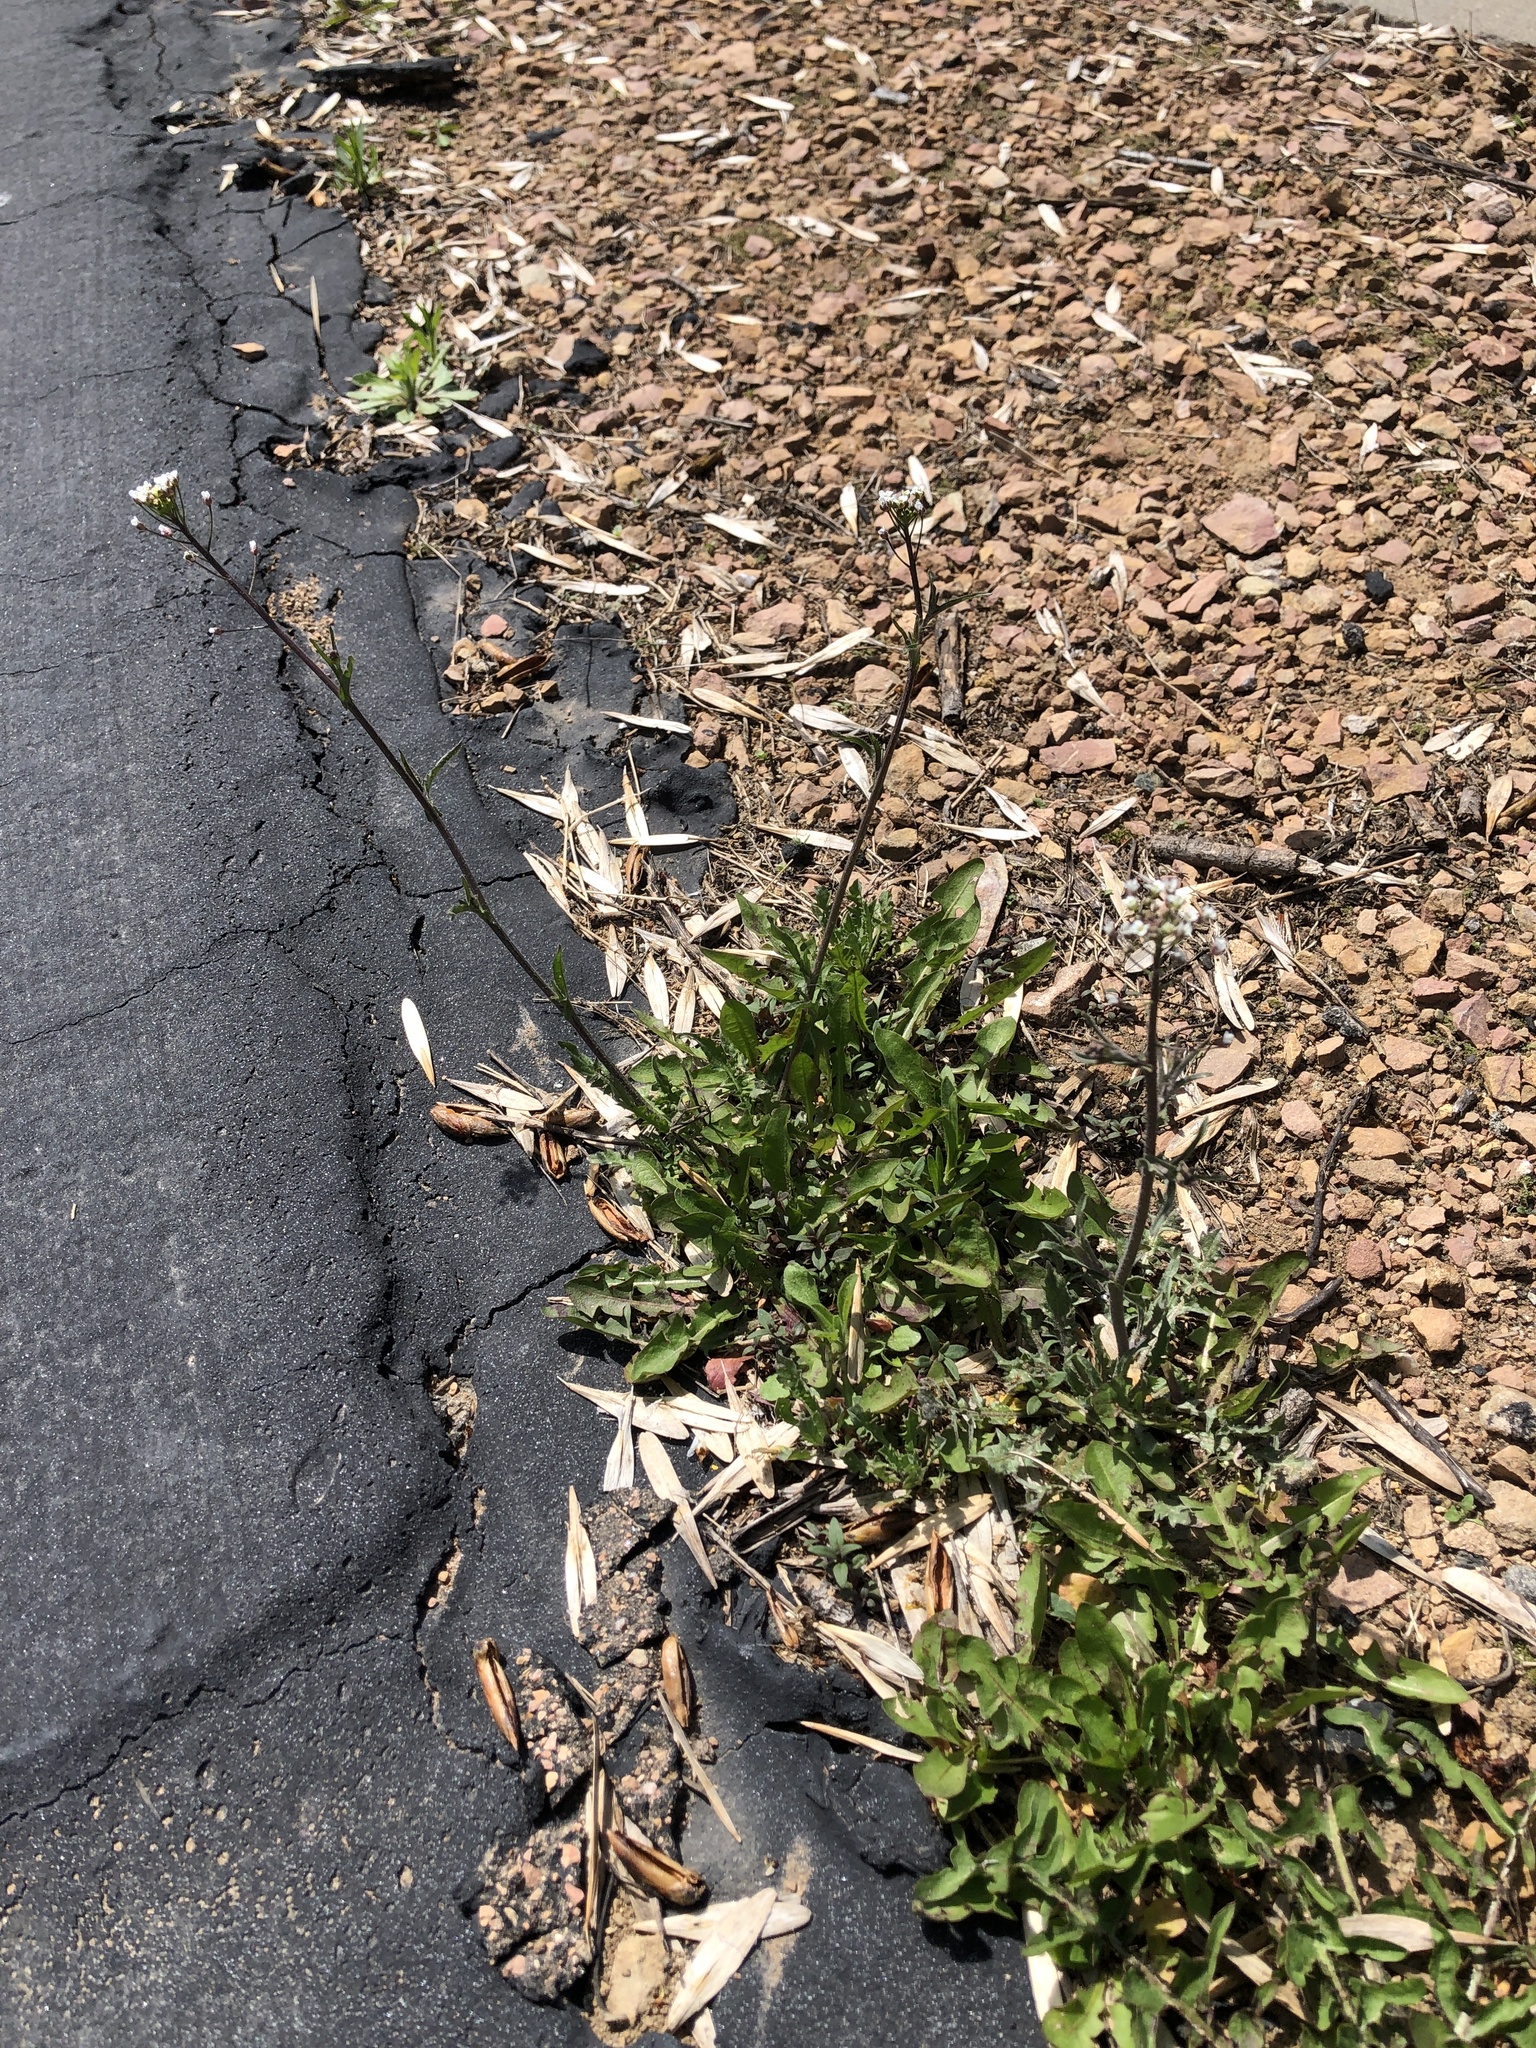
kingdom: Plantae
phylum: Tracheophyta
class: Magnoliopsida
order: Brassicales
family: Brassicaceae
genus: Capsella
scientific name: Capsella bursa-pastoris
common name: Shepherd's purse
